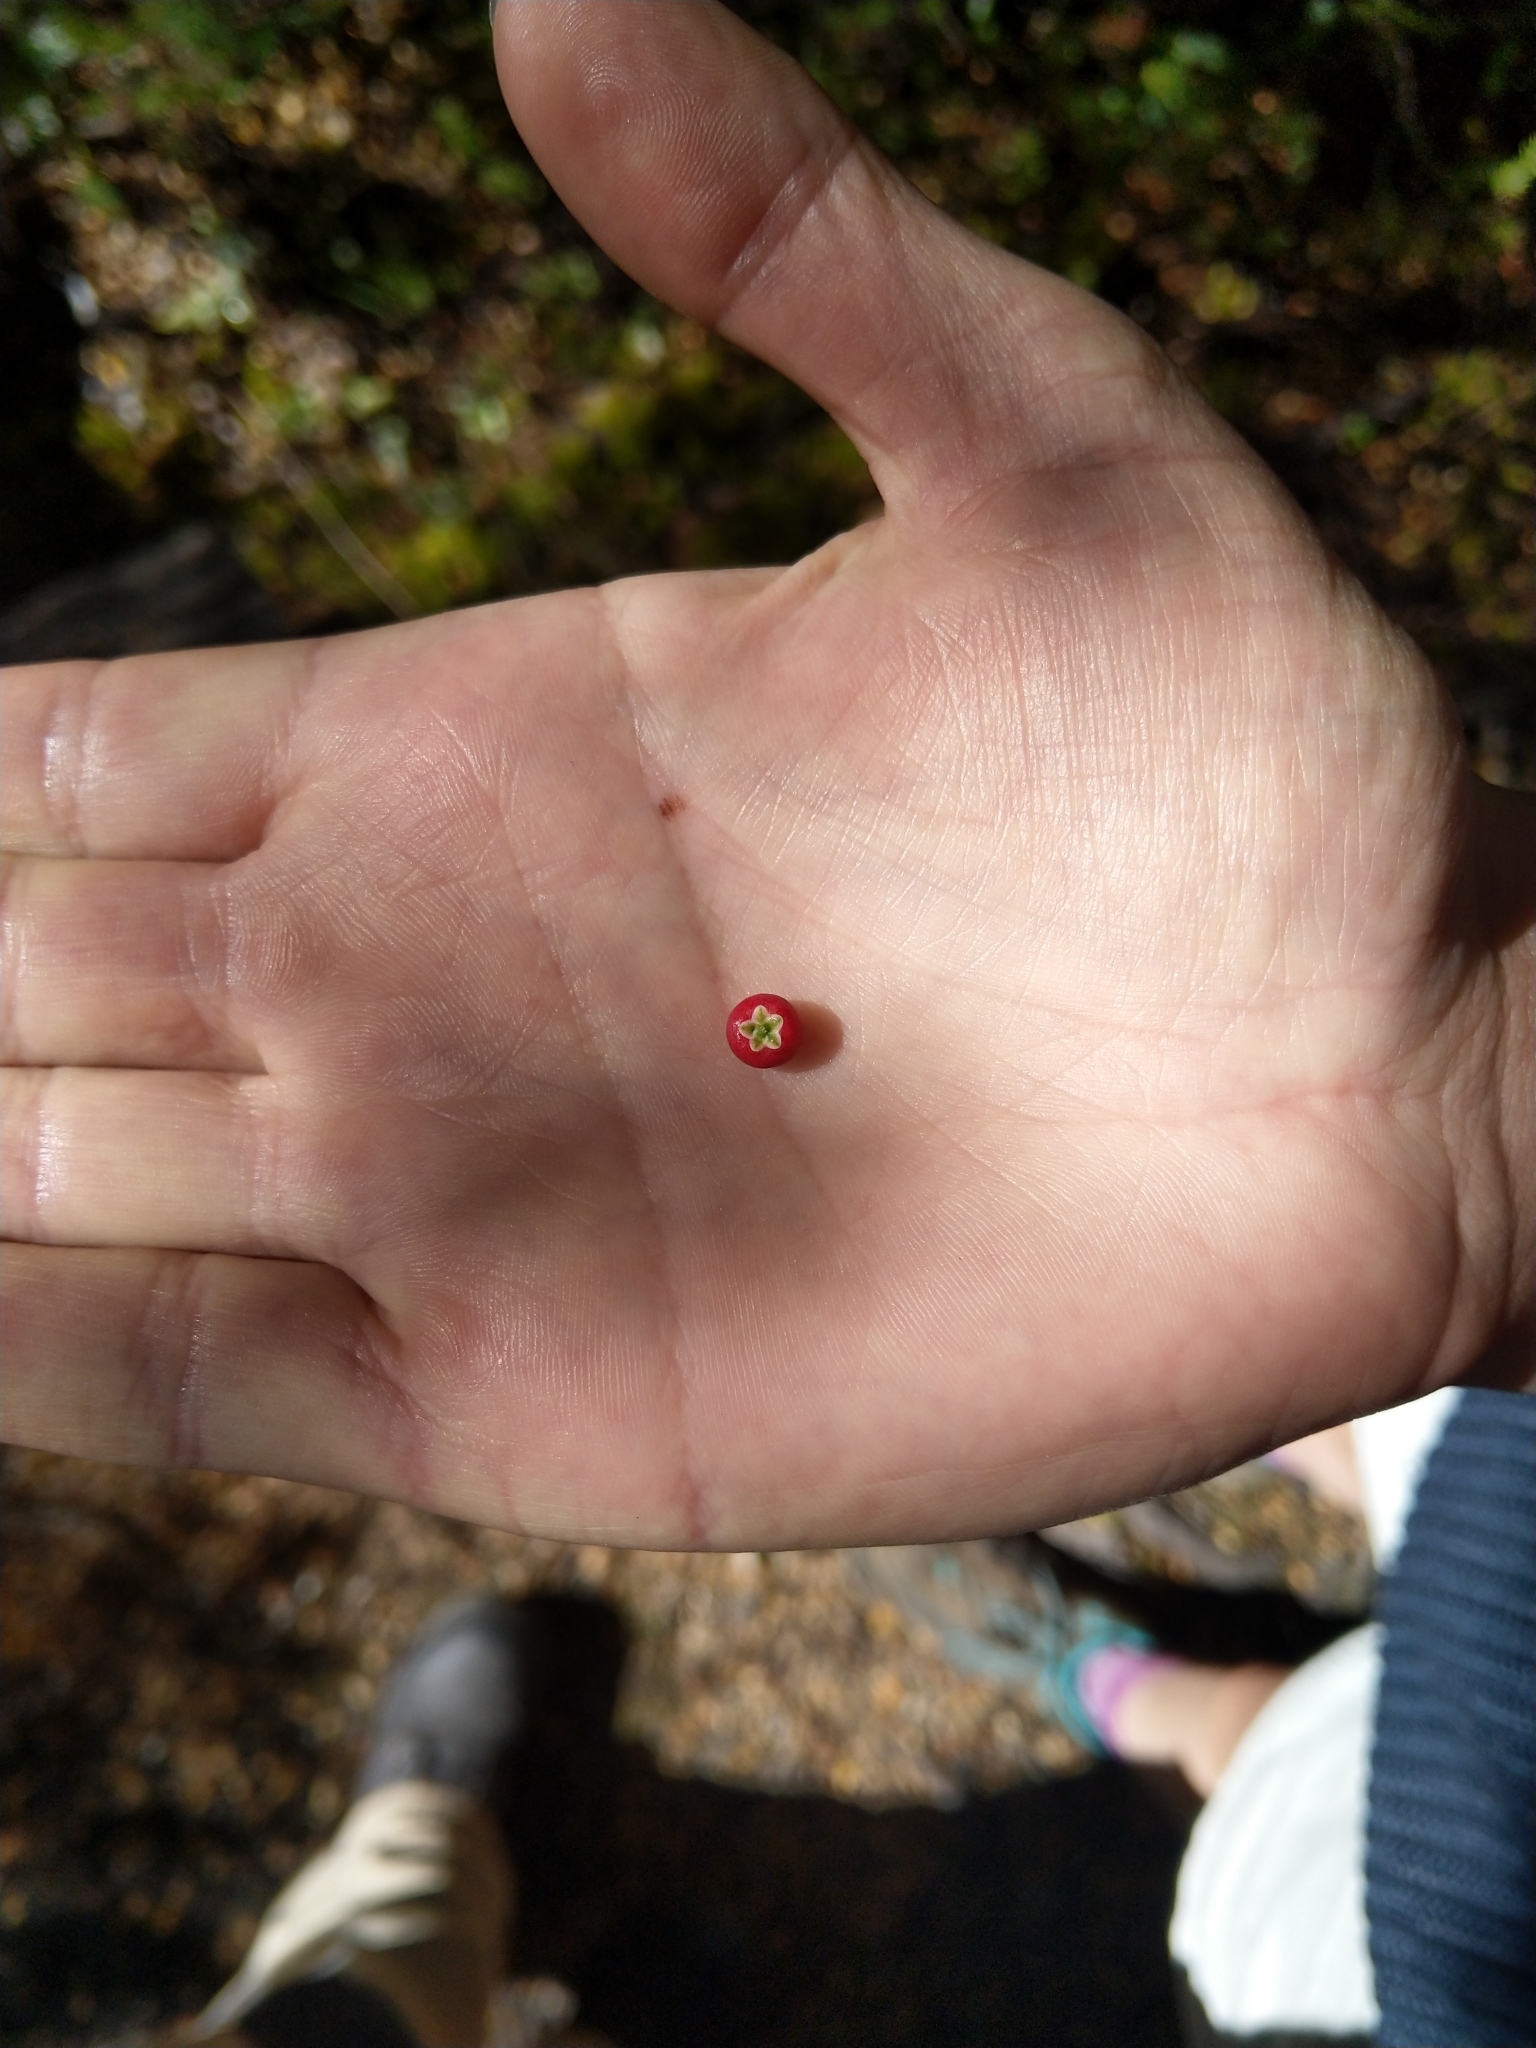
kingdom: Plantae
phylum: Tracheophyta
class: Magnoliopsida
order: Ericales
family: Ericaceae
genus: Leptecophylla
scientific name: Leptecophylla juniperina
